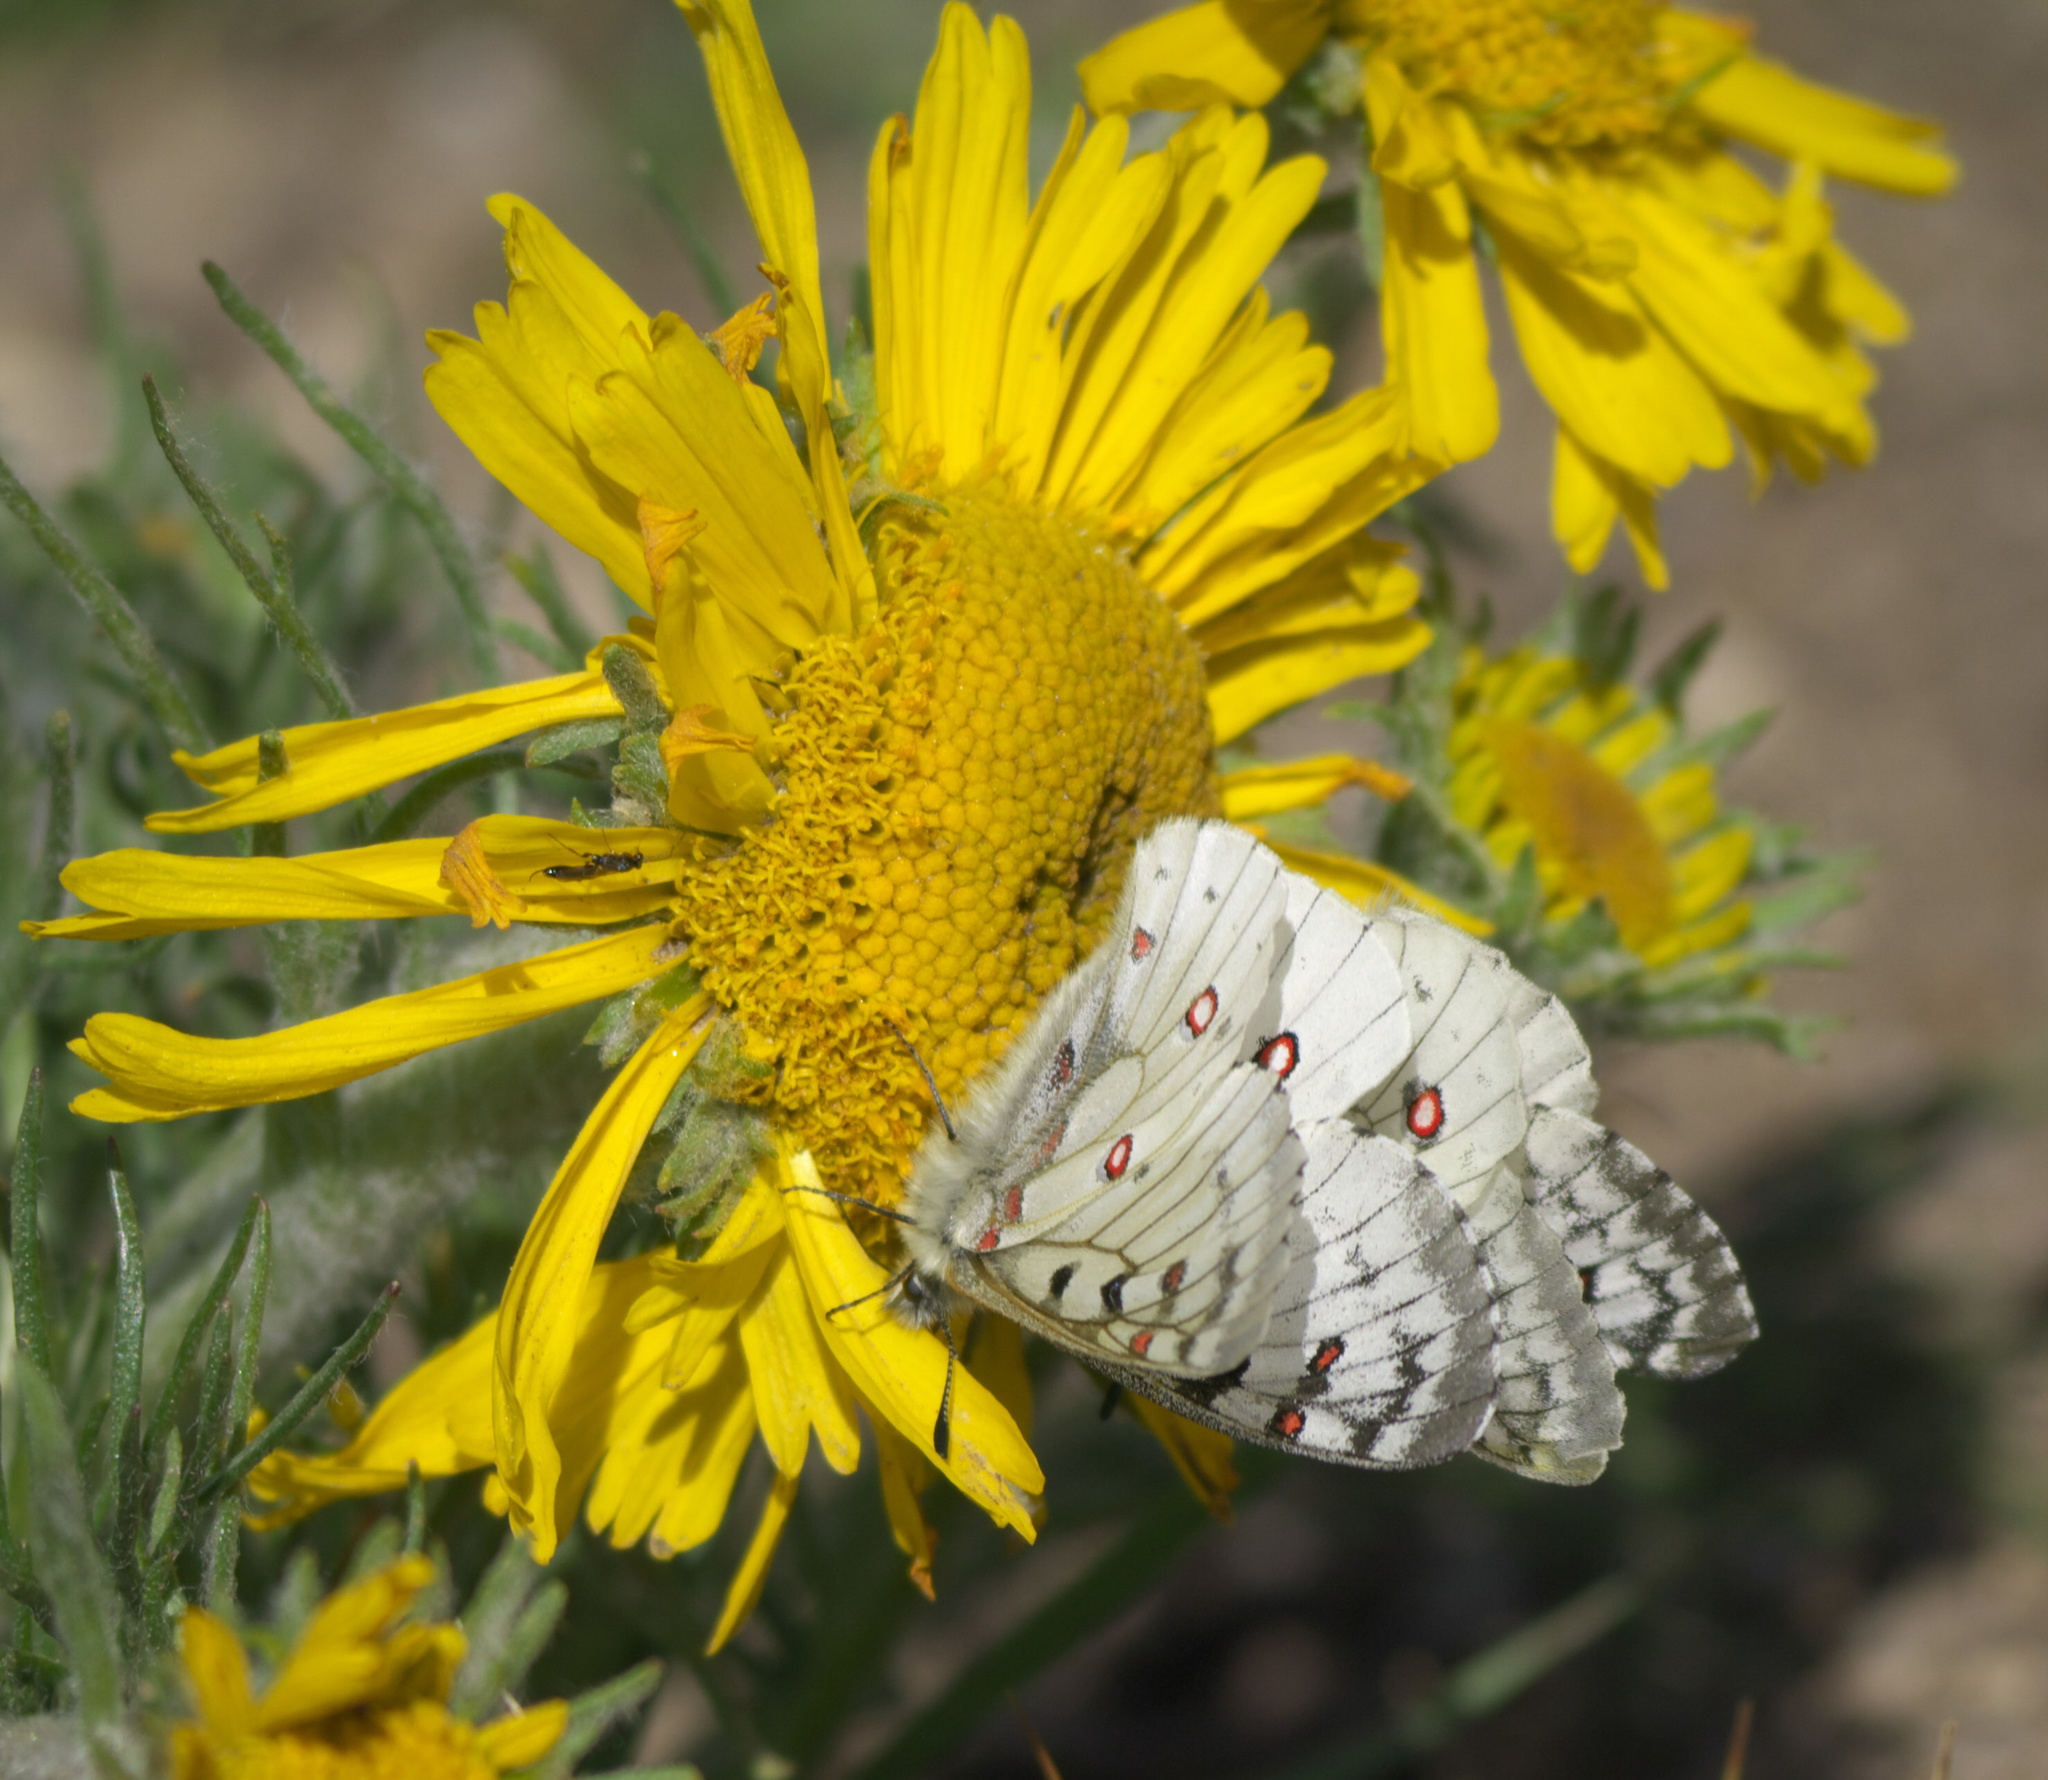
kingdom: Animalia
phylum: Arthropoda
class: Insecta
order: Lepidoptera
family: Papilionidae
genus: Parnassius
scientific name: Parnassius smintheus
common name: Mountain parnassian
